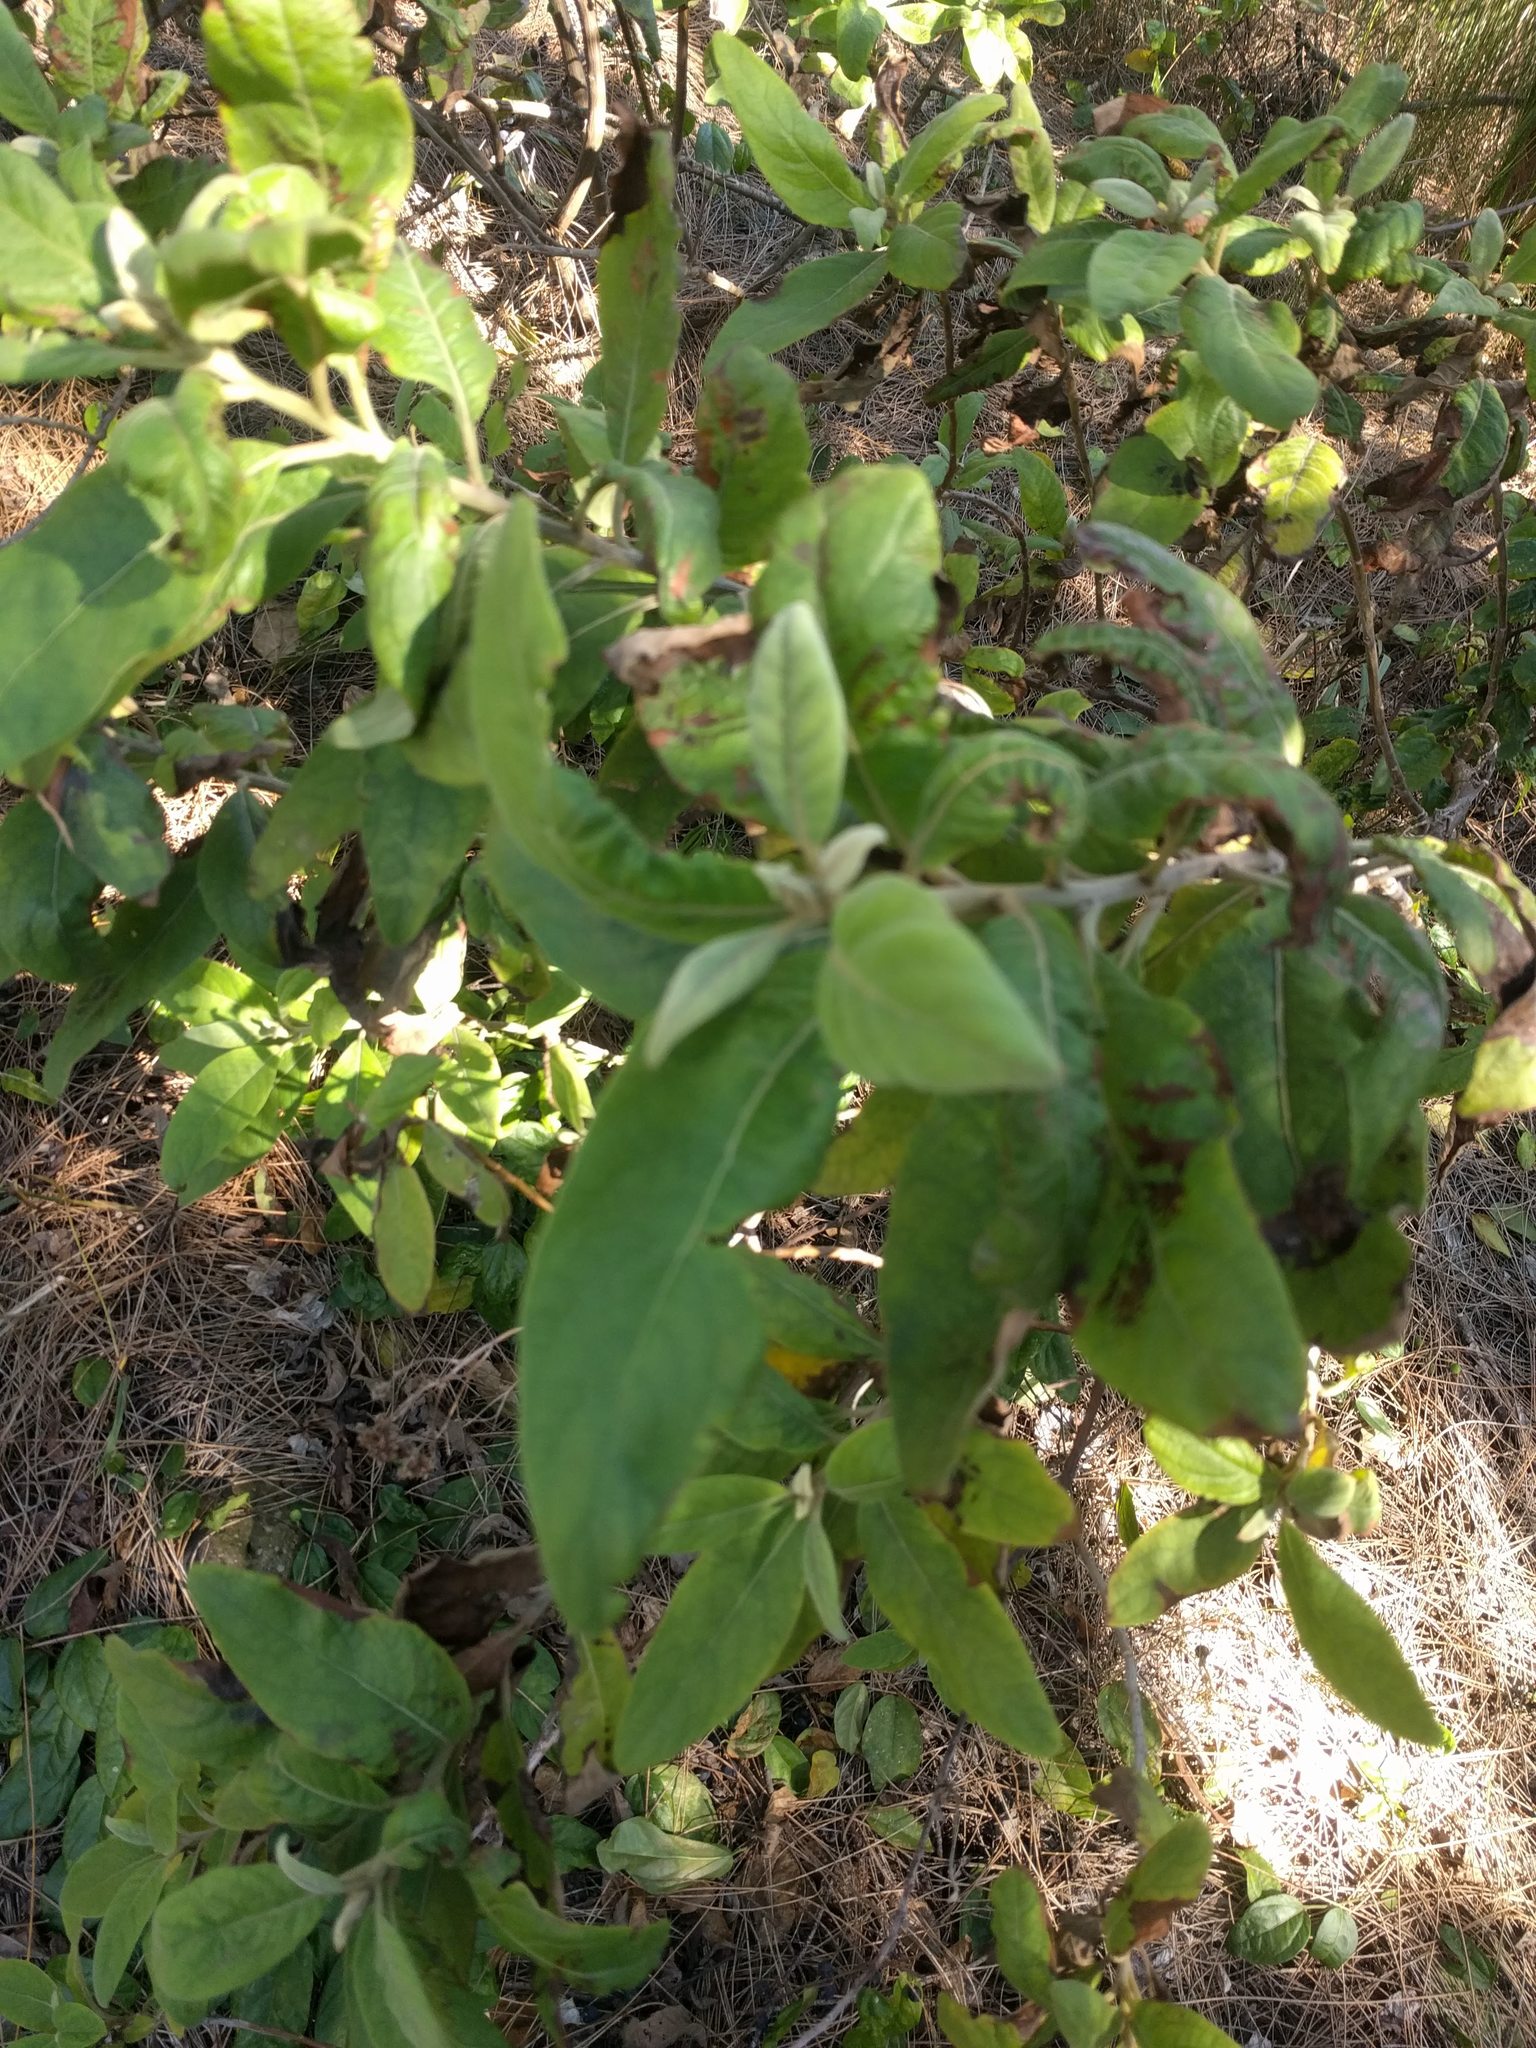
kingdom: Plantae
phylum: Tracheophyta
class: Magnoliopsida
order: Asterales
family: Asteraceae
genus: Pluchea
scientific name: Pluchea carolinensis
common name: Marsh fleabane
